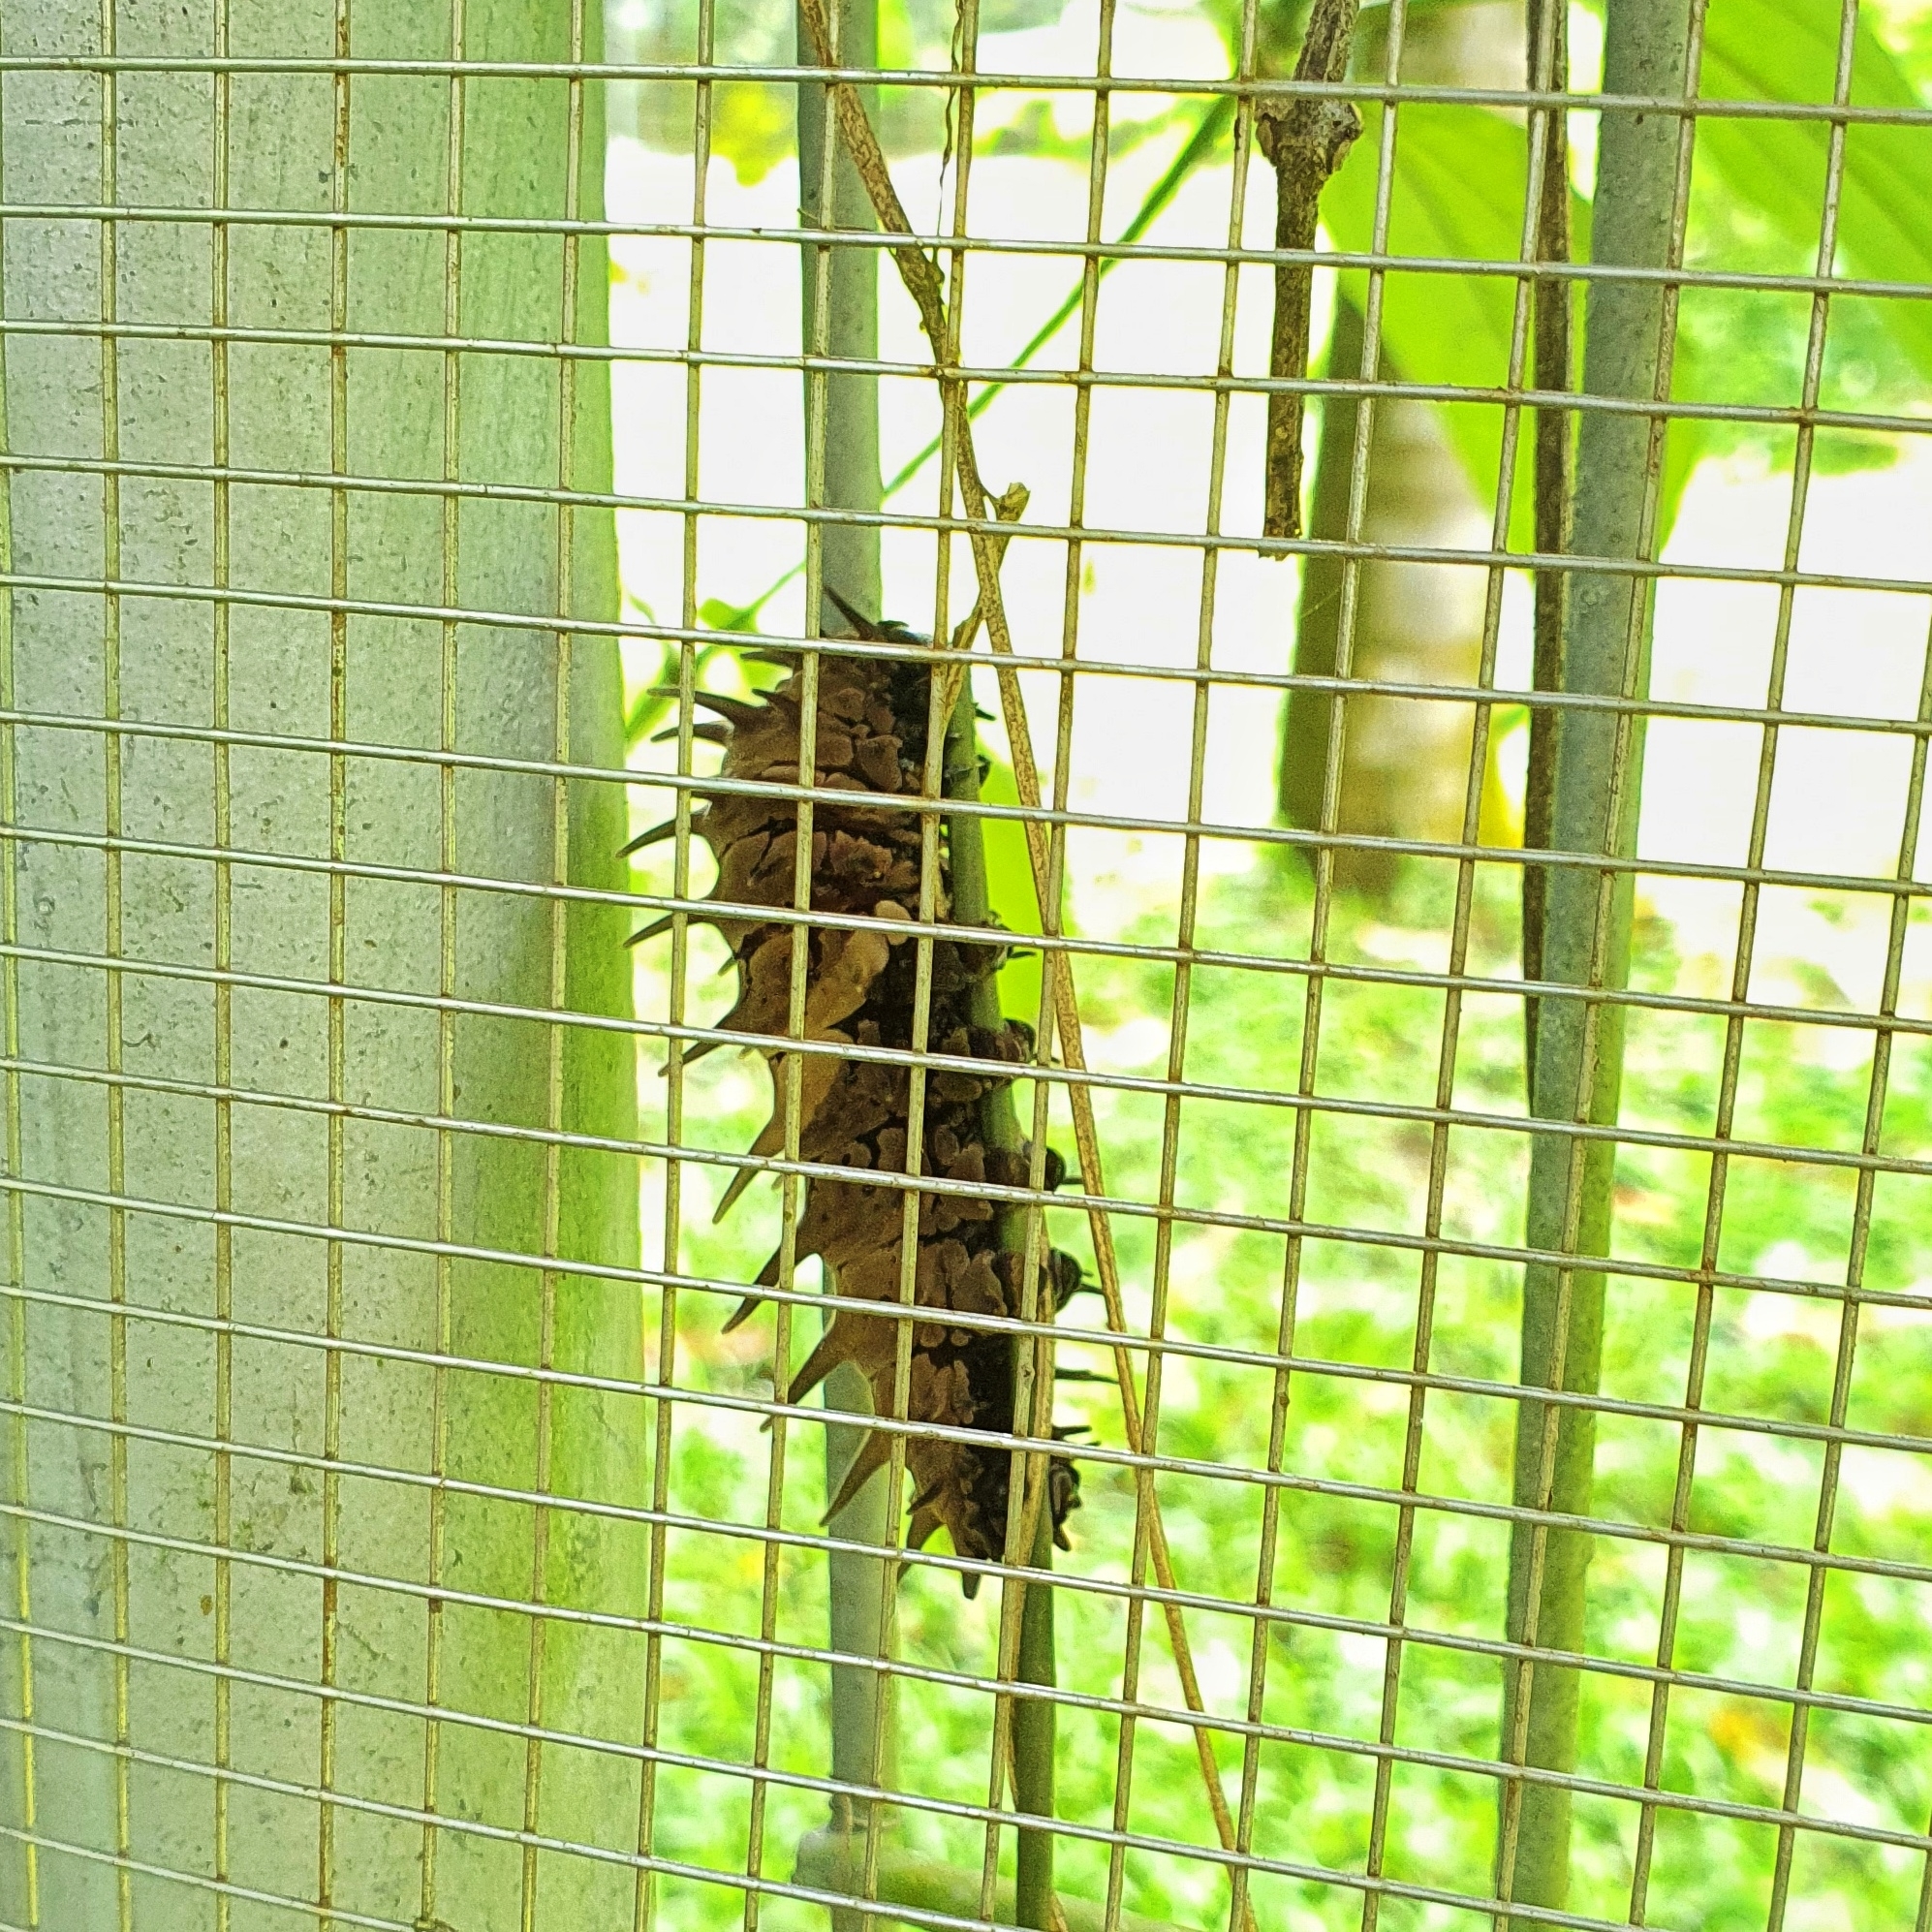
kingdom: Animalia
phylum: Arthropoda
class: Insecta
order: Lepidoptera
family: Papilionidae
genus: Troides
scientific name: Troides helena
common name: Common birdwing
